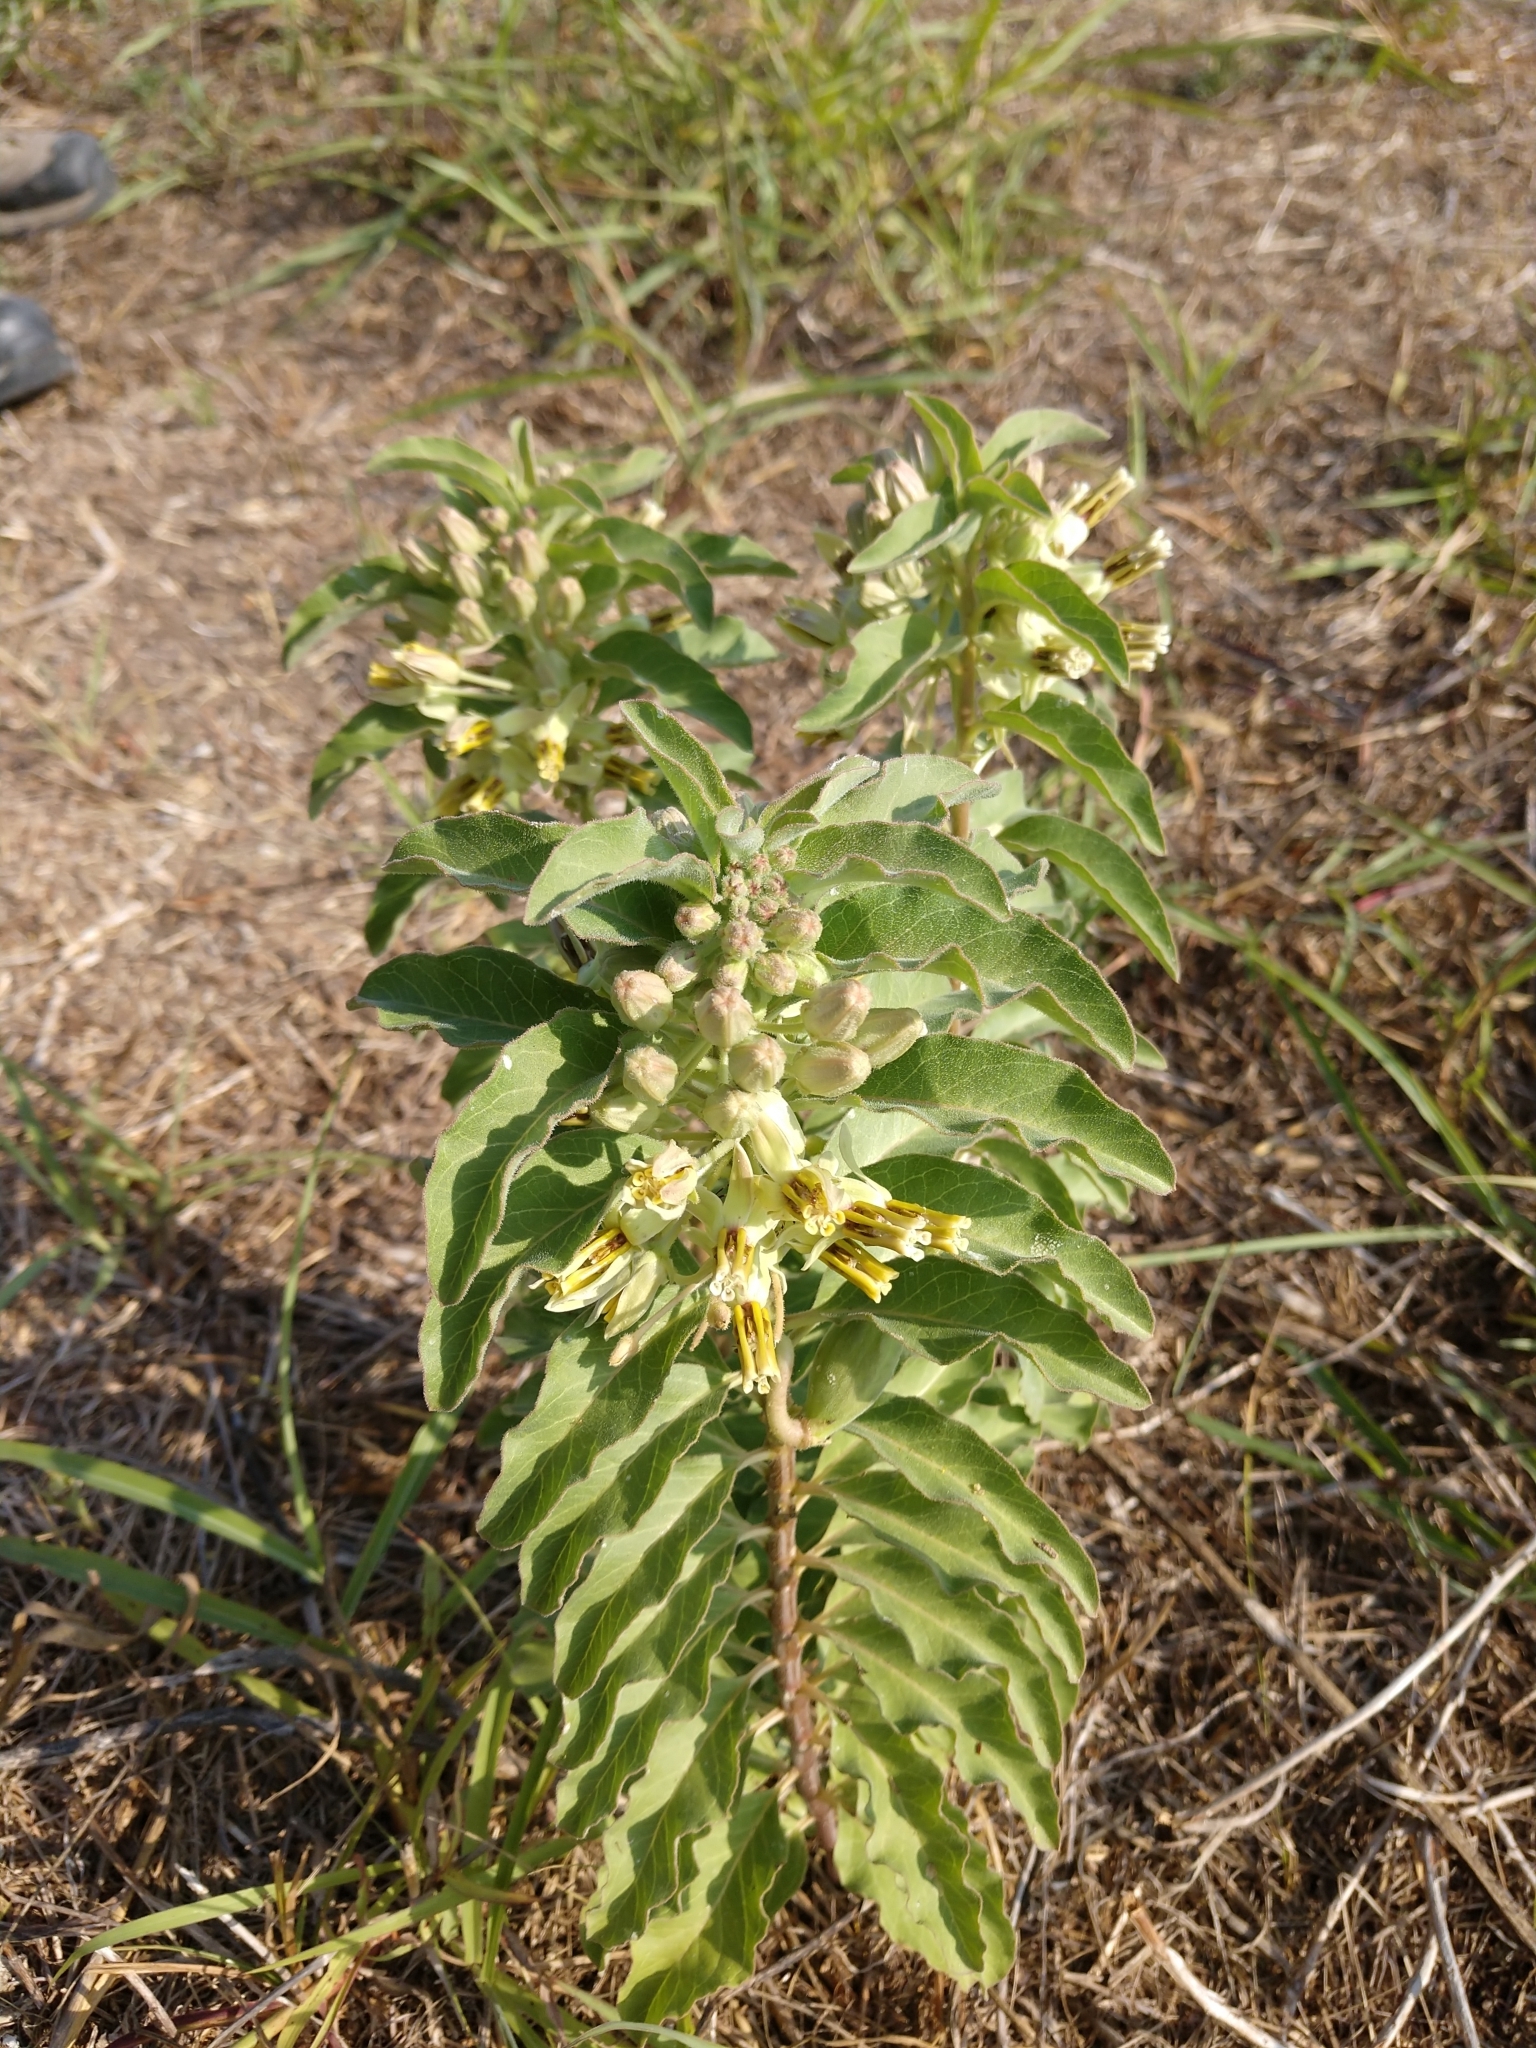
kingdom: Plantae
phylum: Tracheophyta
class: Magnoliopsida
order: Gentianales
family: Apocynaceae
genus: Asclepias
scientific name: Asclepias oenotheroides
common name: Zizotes milkweed
